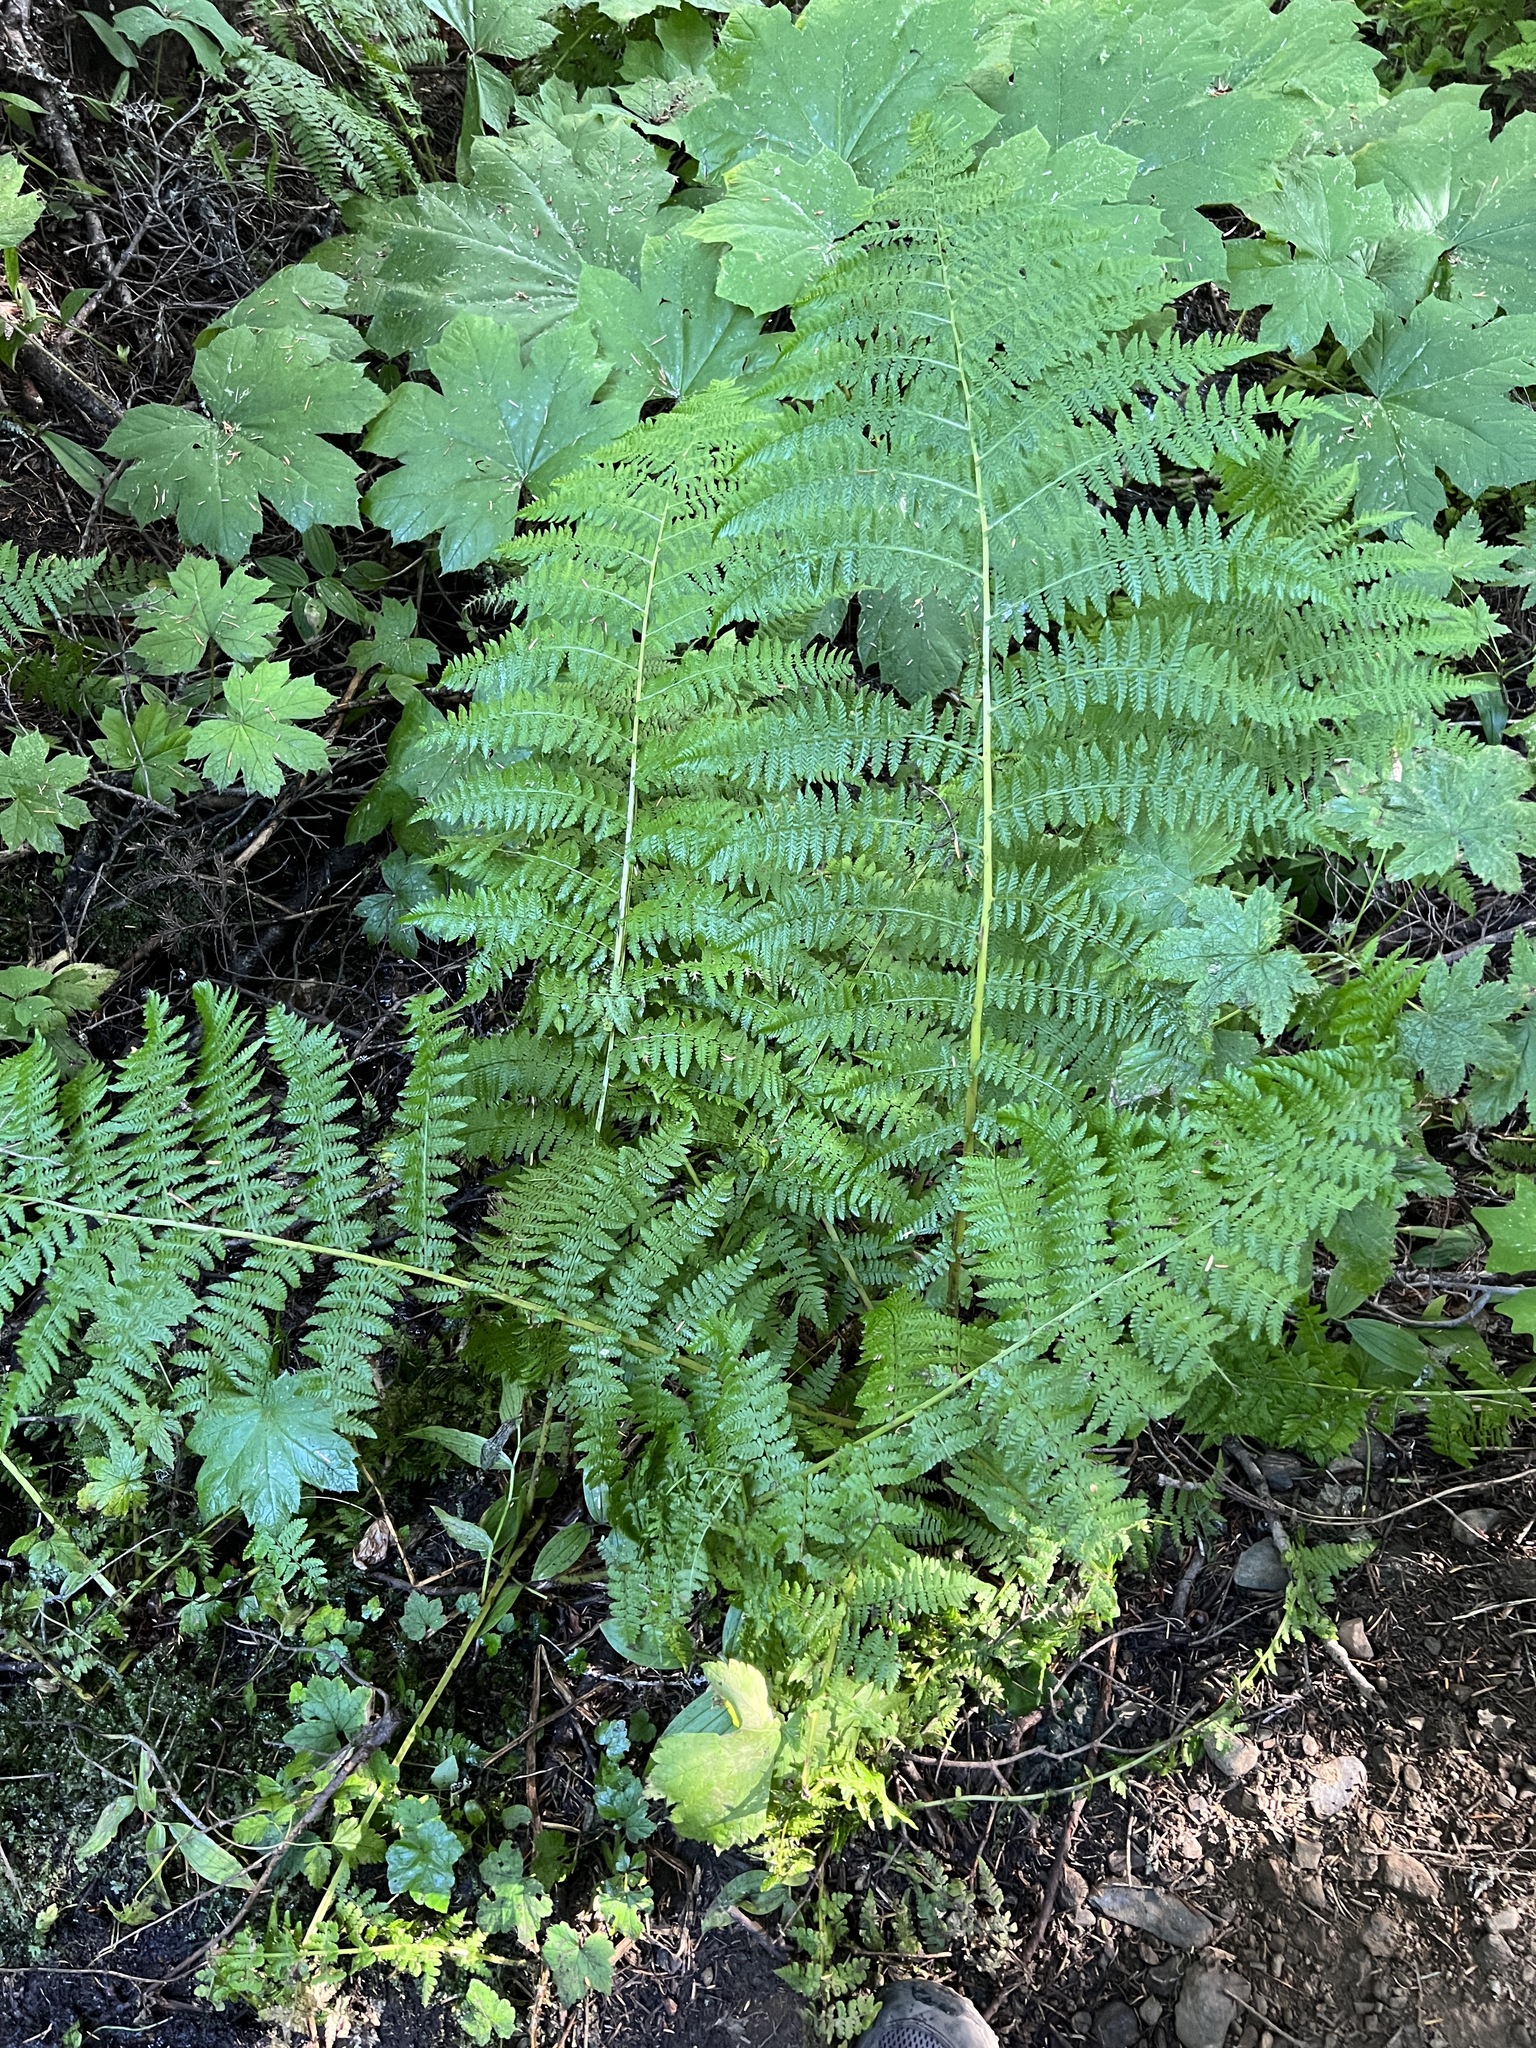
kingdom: Plantae
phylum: Tracheophyta
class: Polypodiopsida
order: Polypodiales
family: Athyriaceae
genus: Athyrium
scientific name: Athyrium filix-femina
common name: Lady fern
